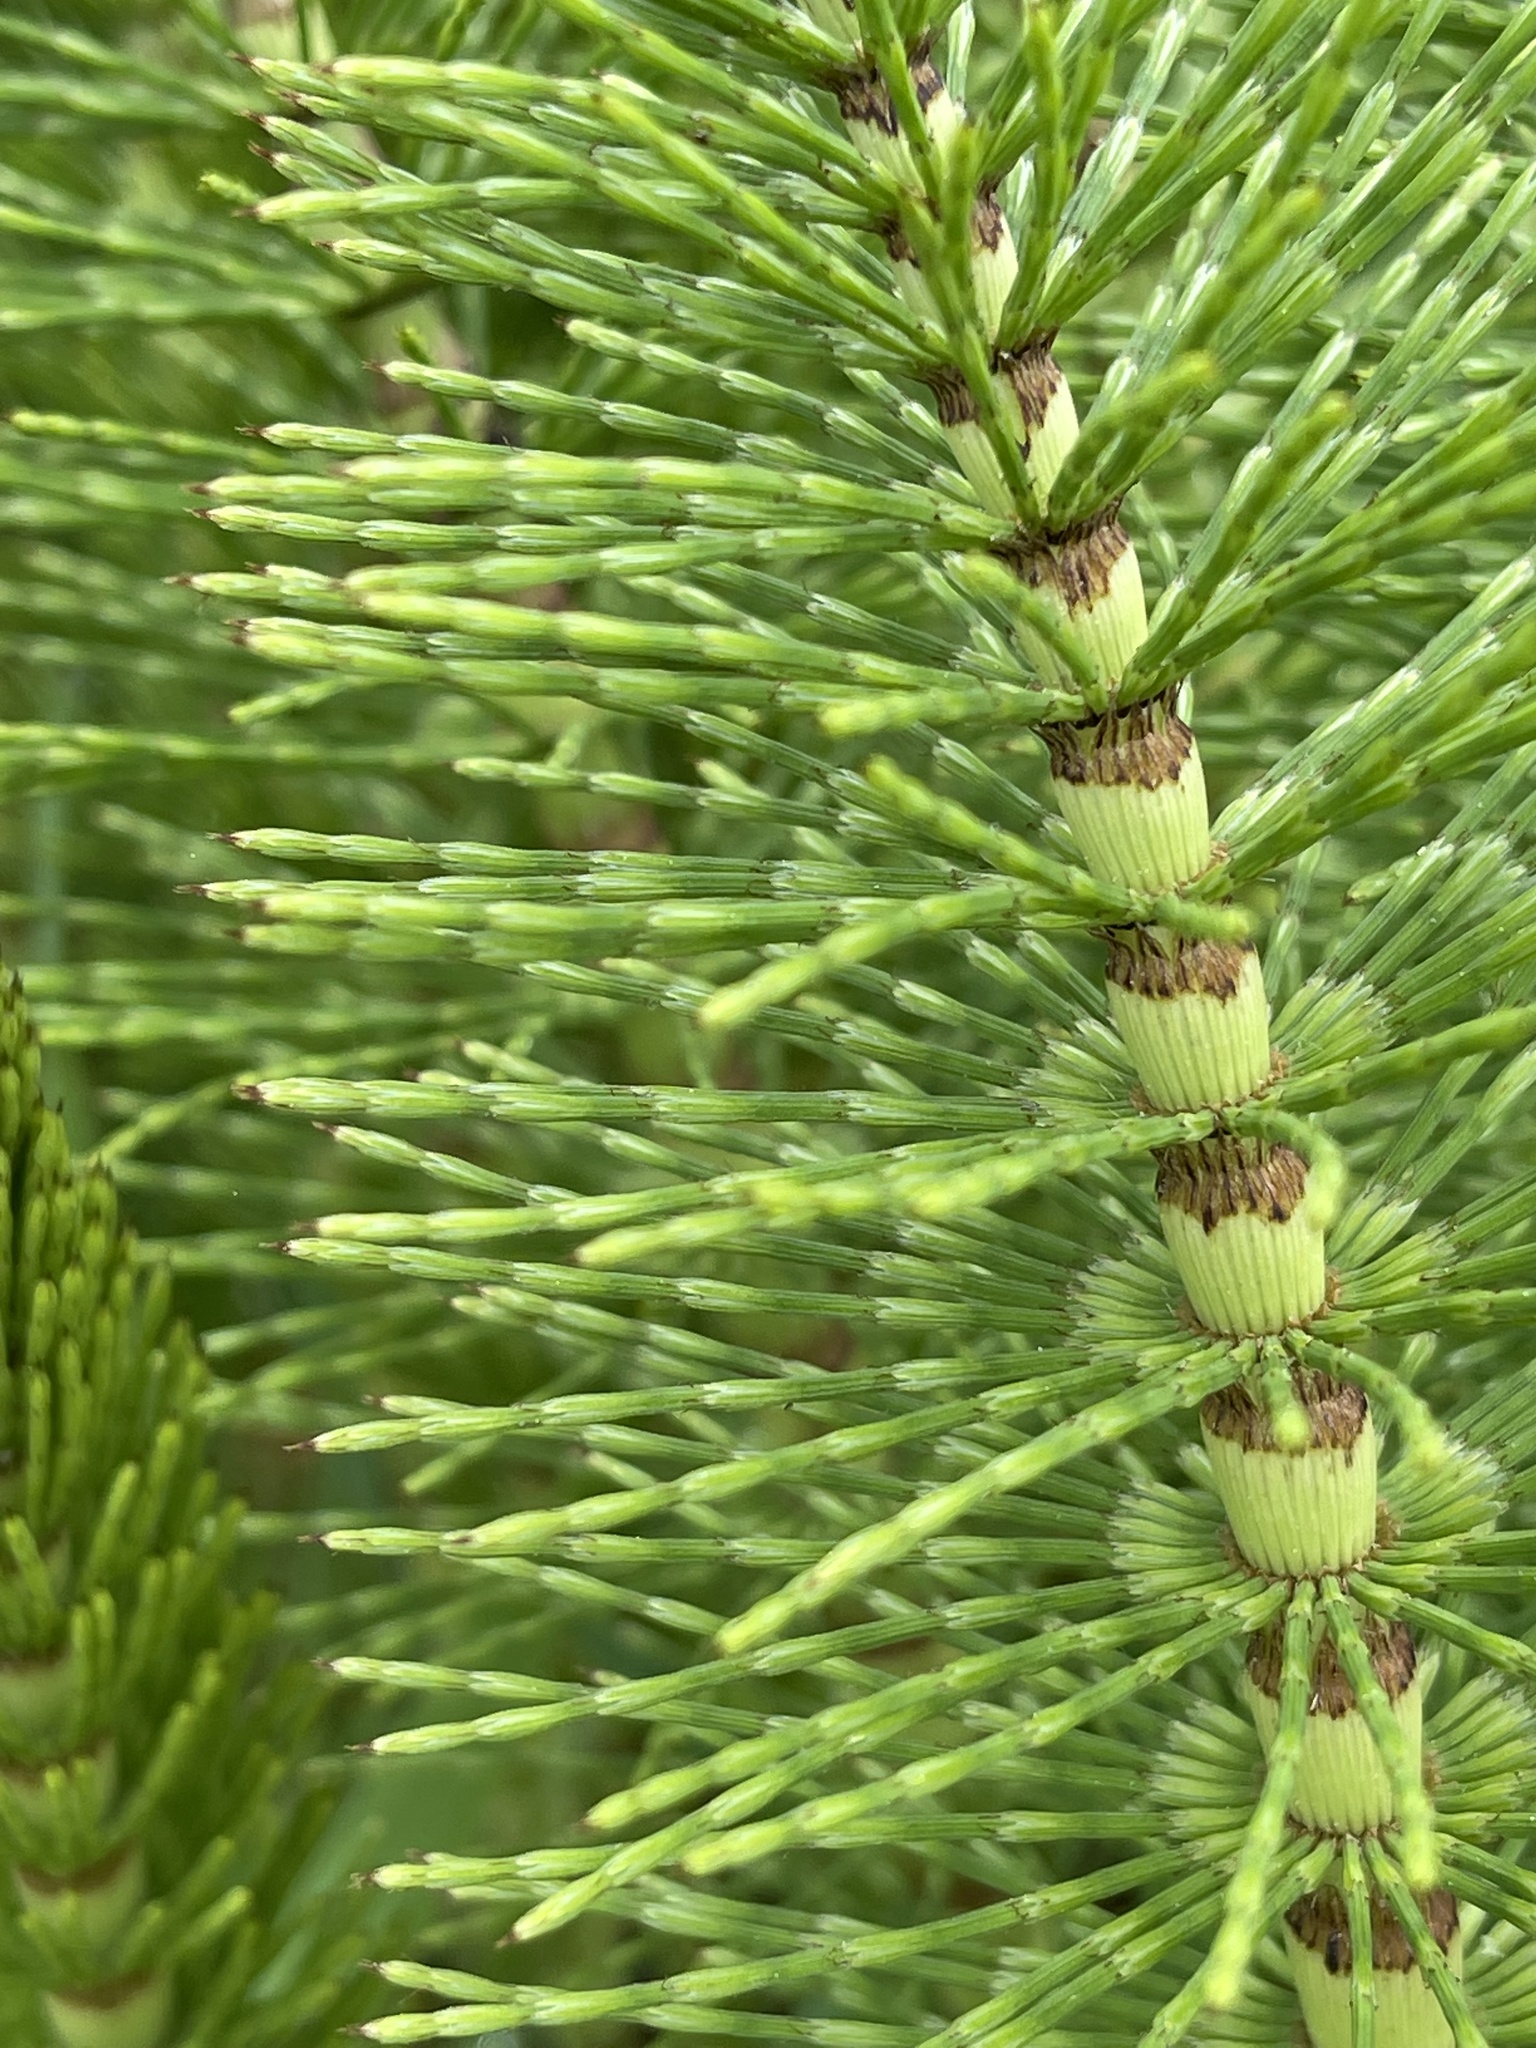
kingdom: Plantae
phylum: Tracheophyta
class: Polypodiopsida
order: Equisetales
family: Equisetaceae
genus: Equisetum
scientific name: Equisetum telmateia
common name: Great horsetail
